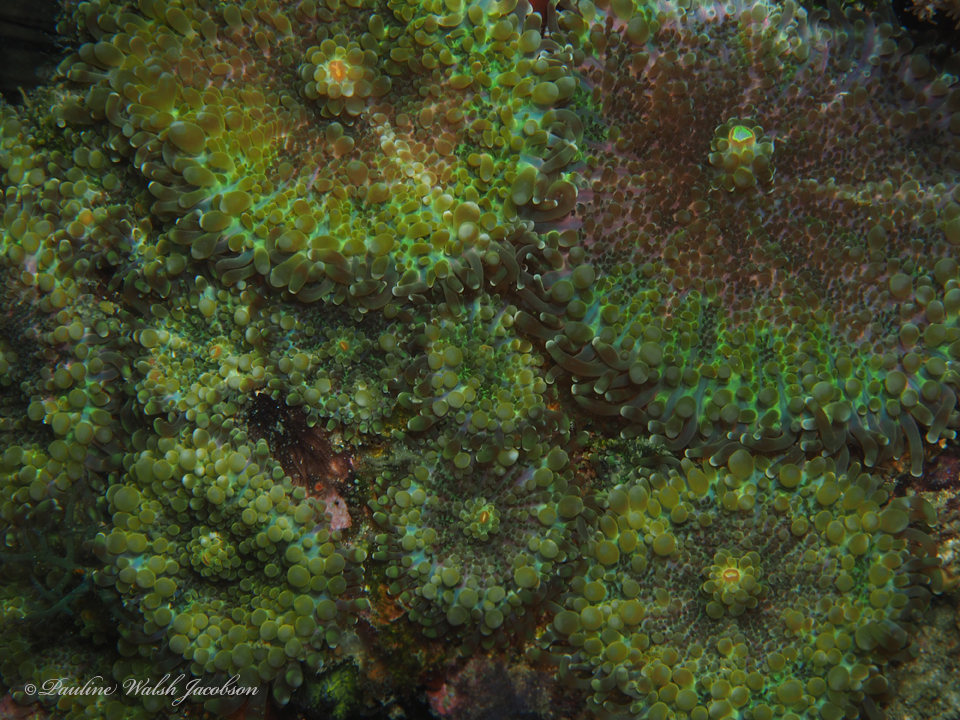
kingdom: Animalia
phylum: Cnidaria
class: Anthozoa
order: Corallimorpharia
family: Ricordeidae
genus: Ricordea
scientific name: Ricordea yuma
